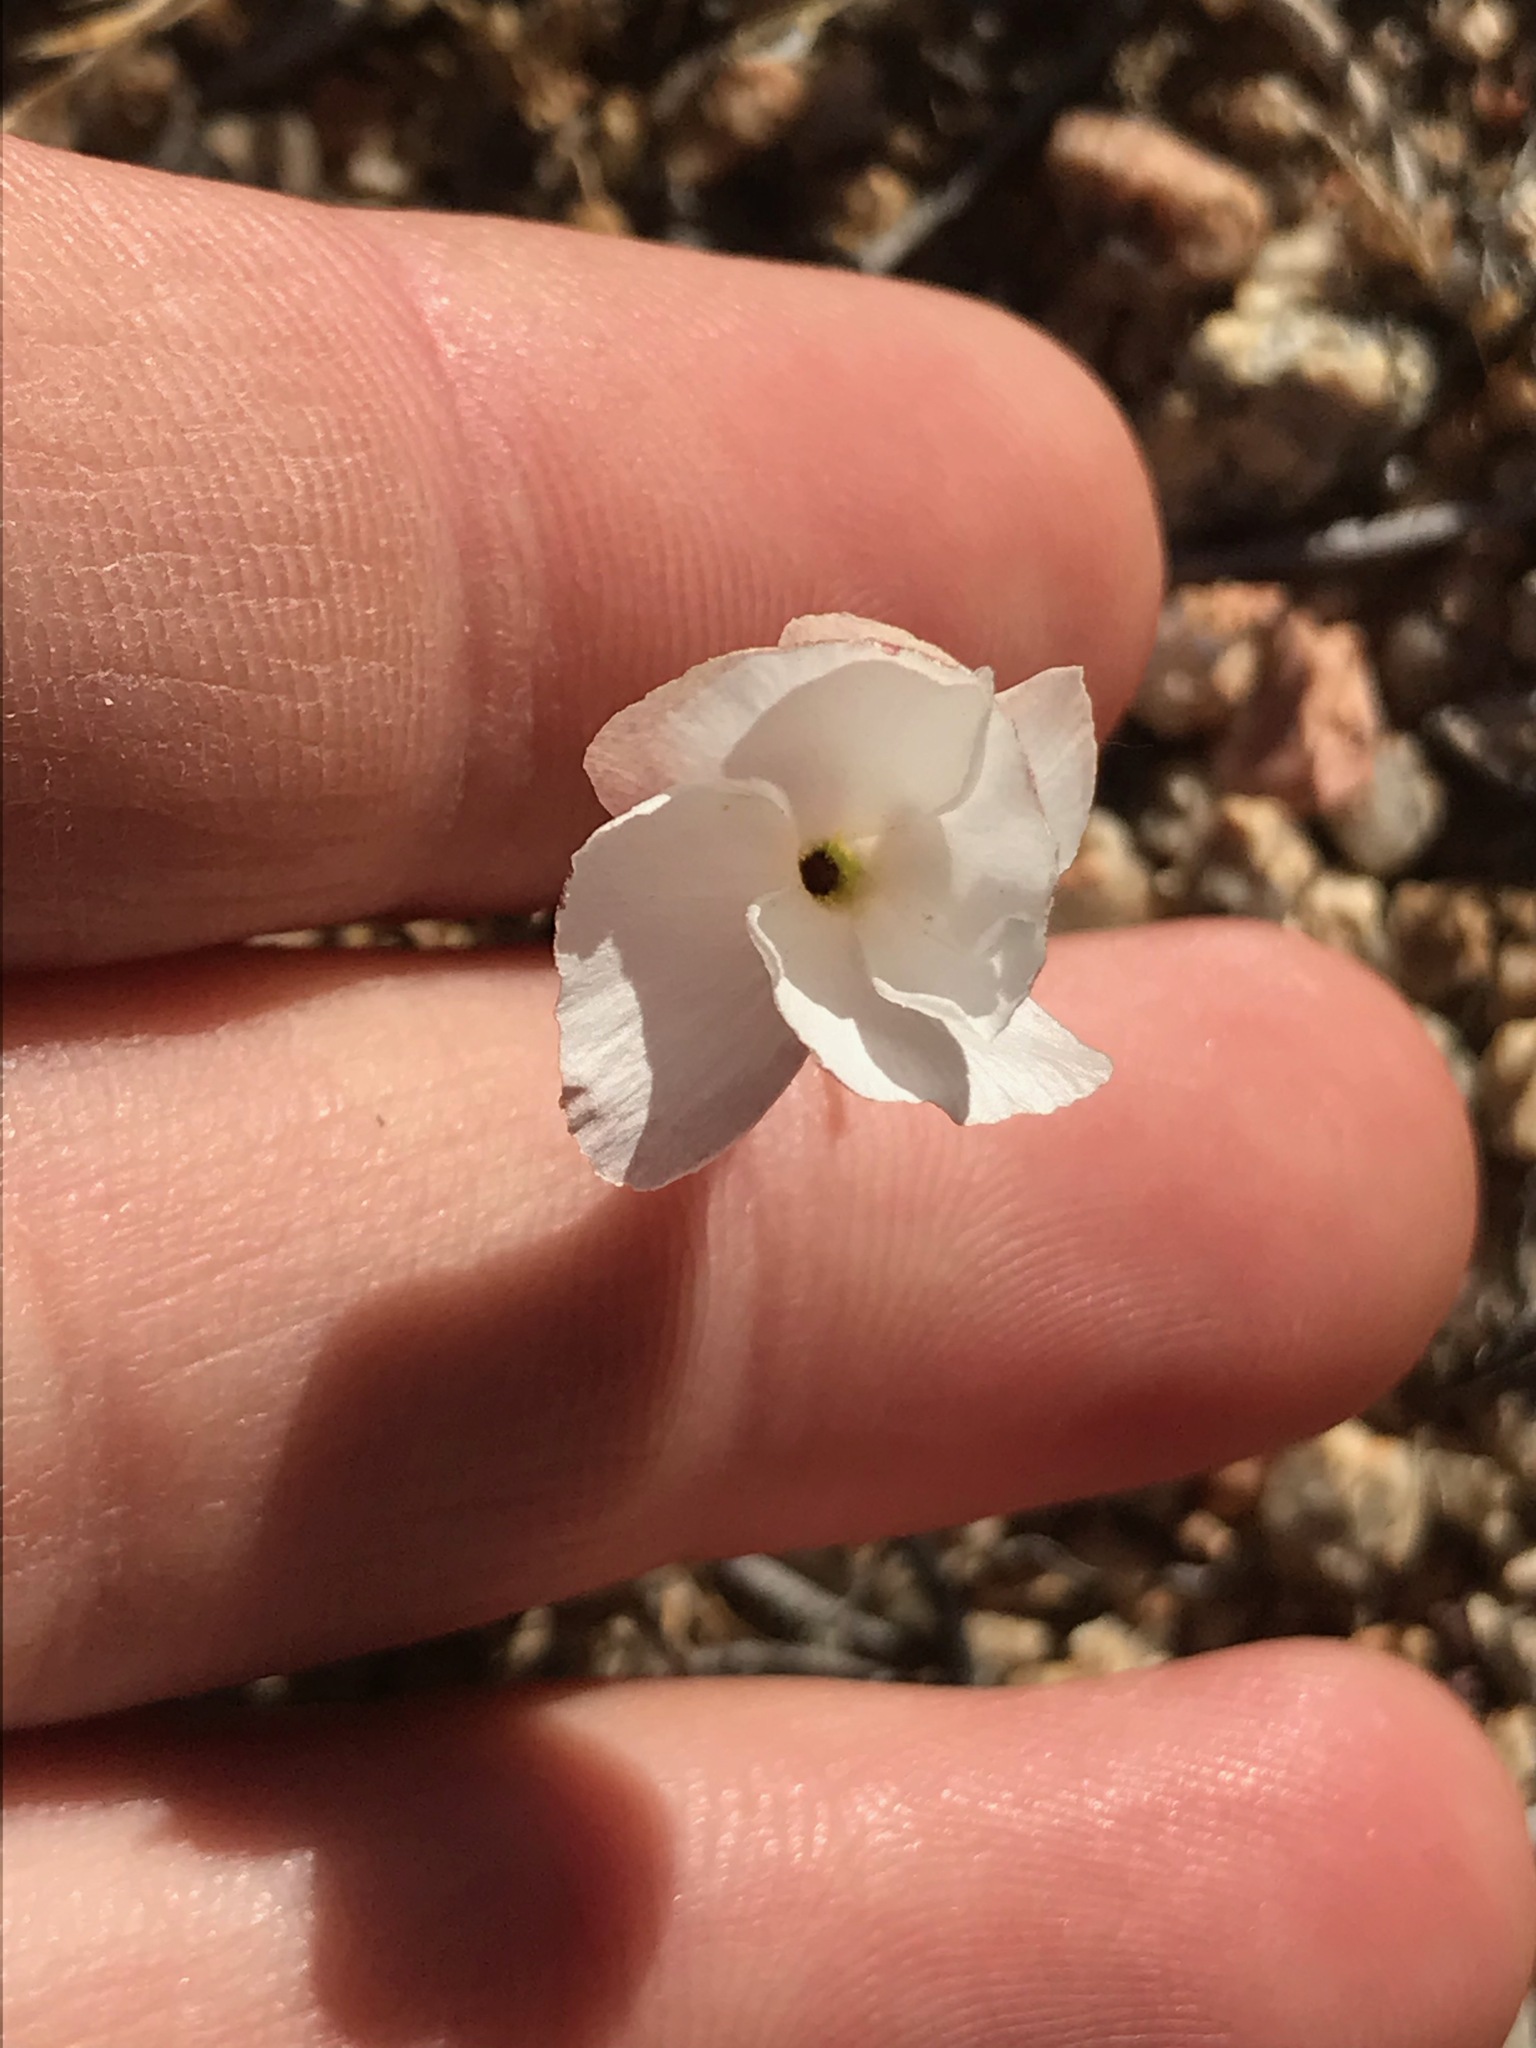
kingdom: Plantae
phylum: Tracheophyta
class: Magnoliopsida
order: Ericales
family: Polemoniaceae
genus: Linanthus
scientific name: Linanthus dichotomus
